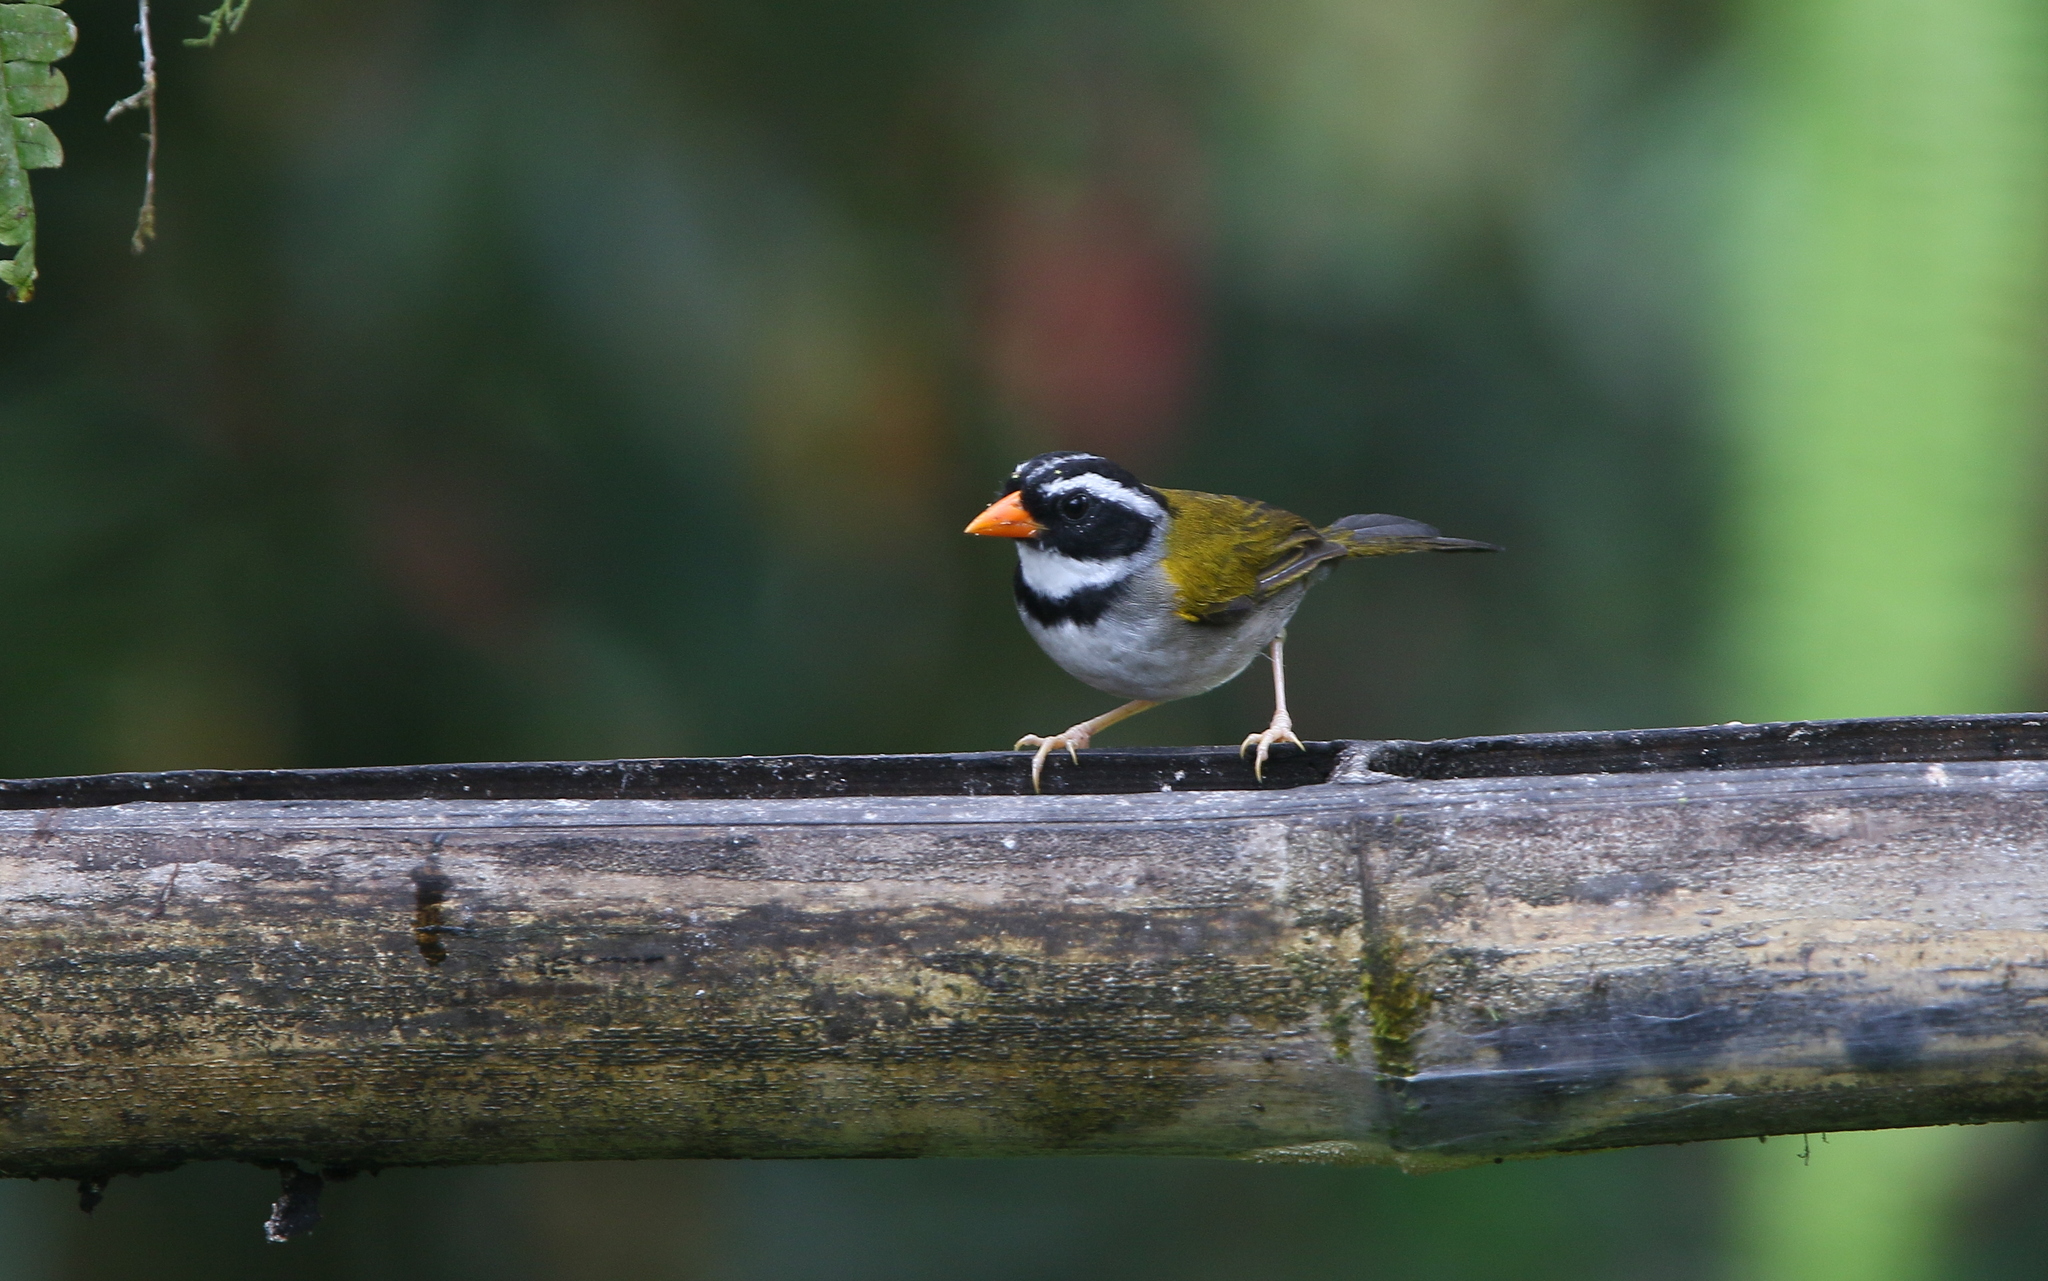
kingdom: Animalia
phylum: Chordata
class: Aves
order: Passeriformes
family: Passerellidae
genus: Arremon
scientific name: Arremon aurantiirostris
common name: Orange-billed sparrow
